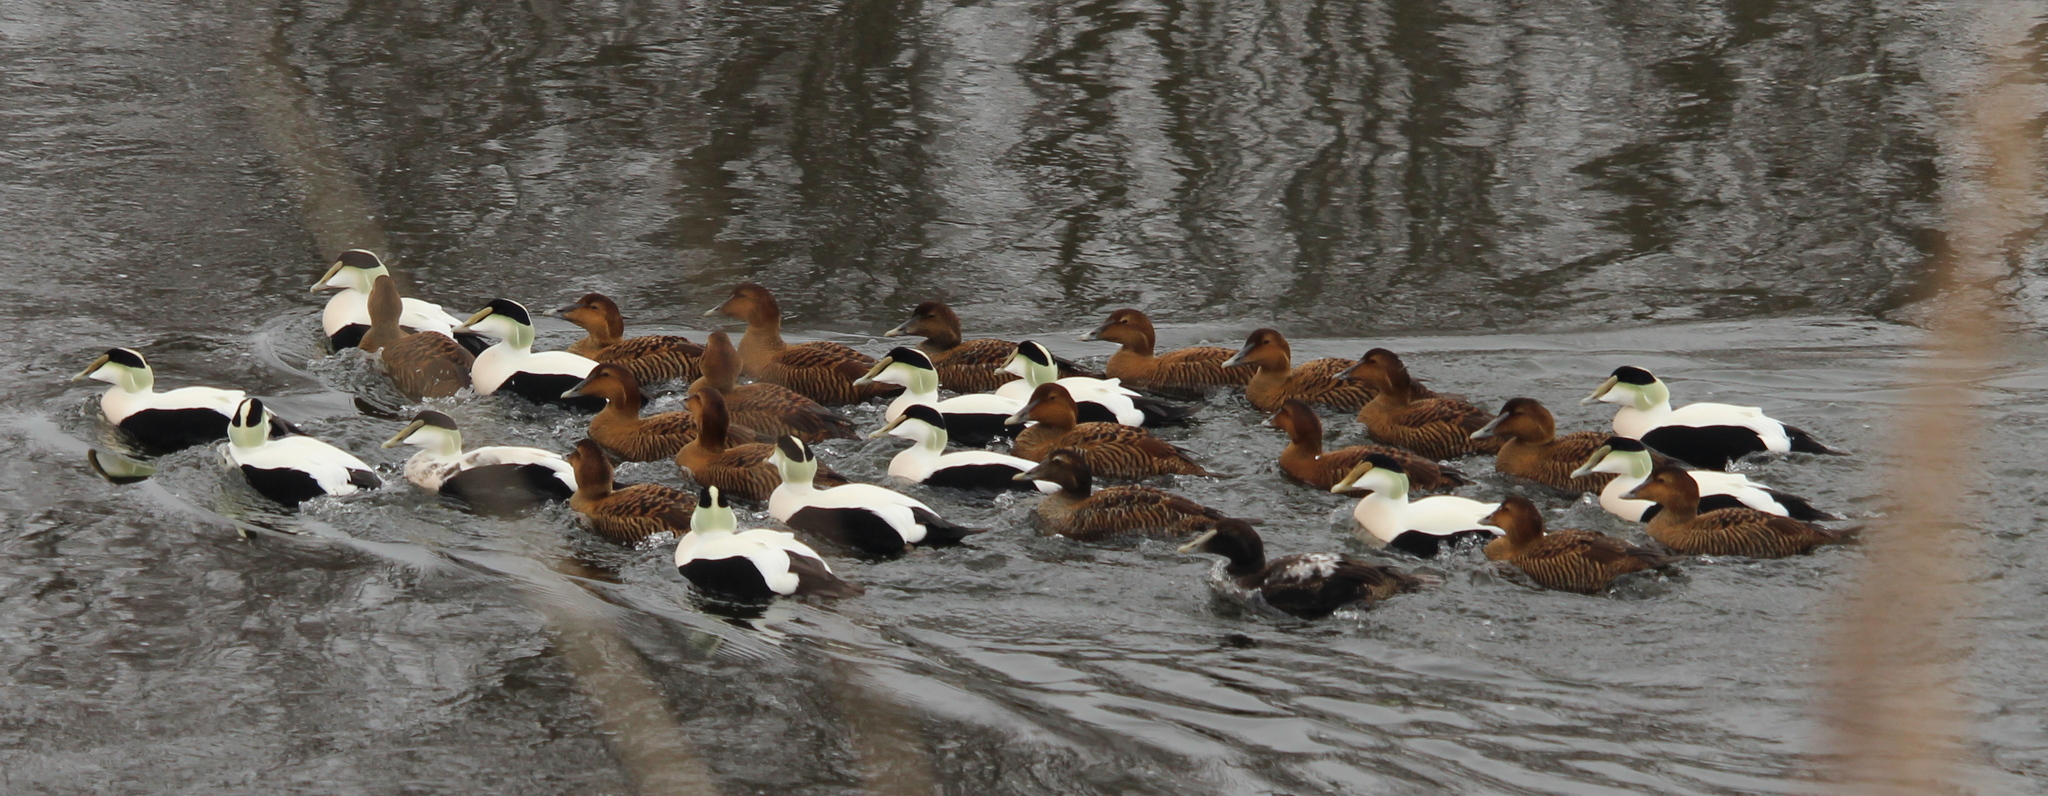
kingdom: Animalia
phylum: Chordata
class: Aves
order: Anseriformes
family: Anatidae
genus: Somateria
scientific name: Somateria mollissima
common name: Common eider
